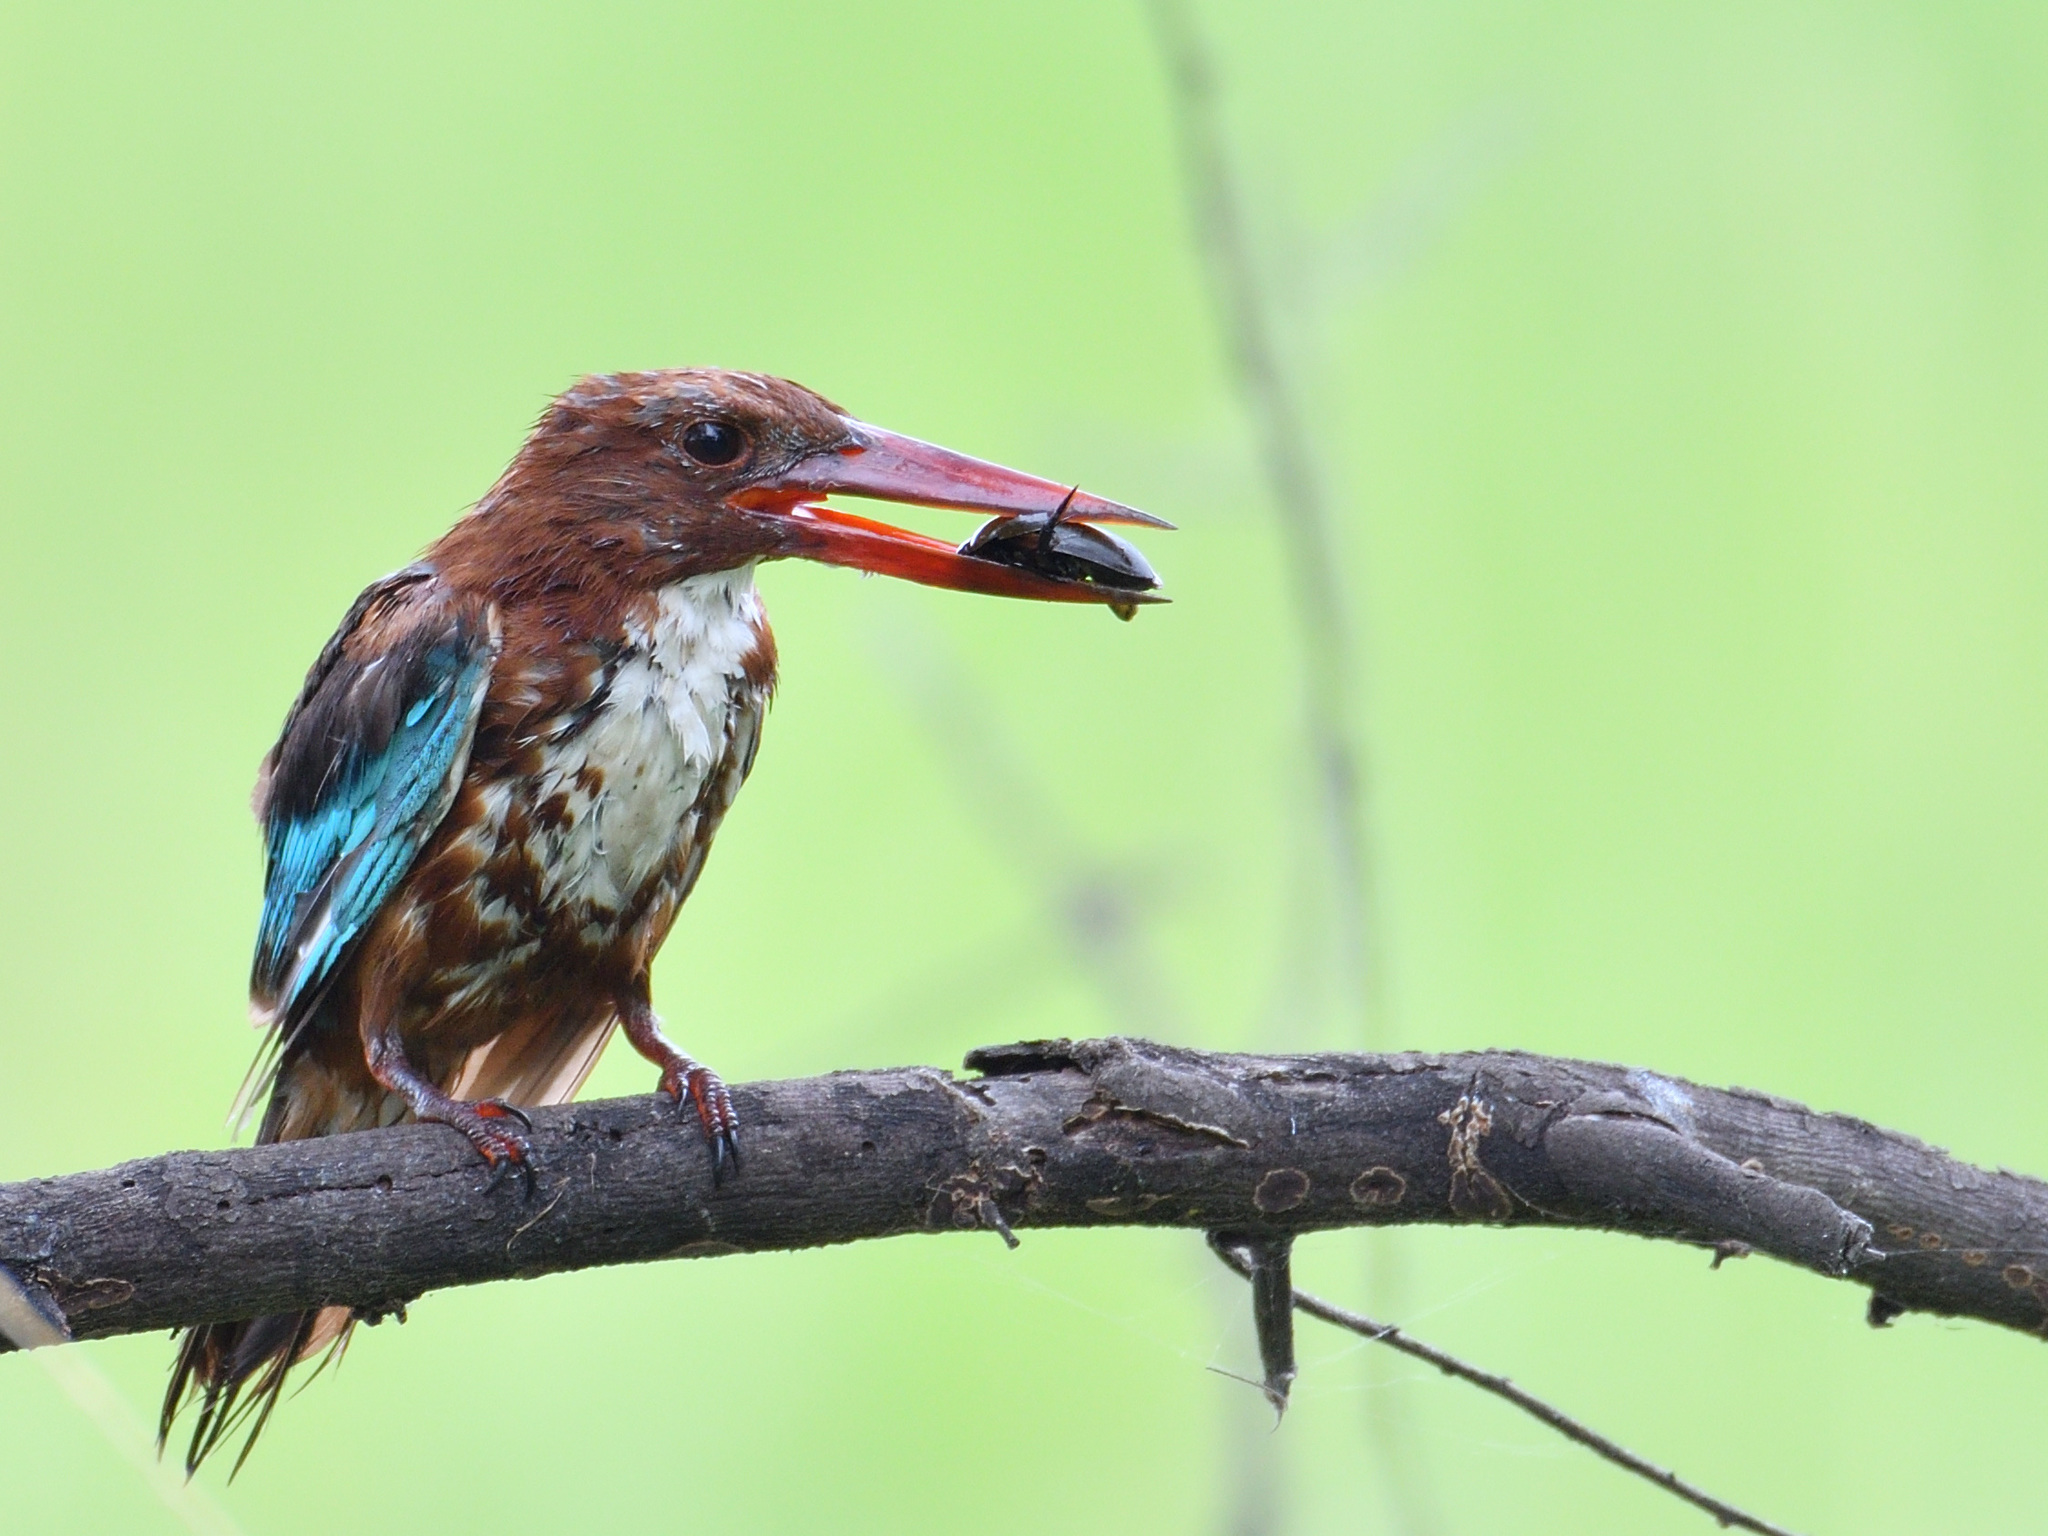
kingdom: Animalia
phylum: Chordata
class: Aves
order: Coraciiformes
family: Alcedinidae
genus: Halcyon
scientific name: Halcyon smyrnensis
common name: White-throated kingfisher
